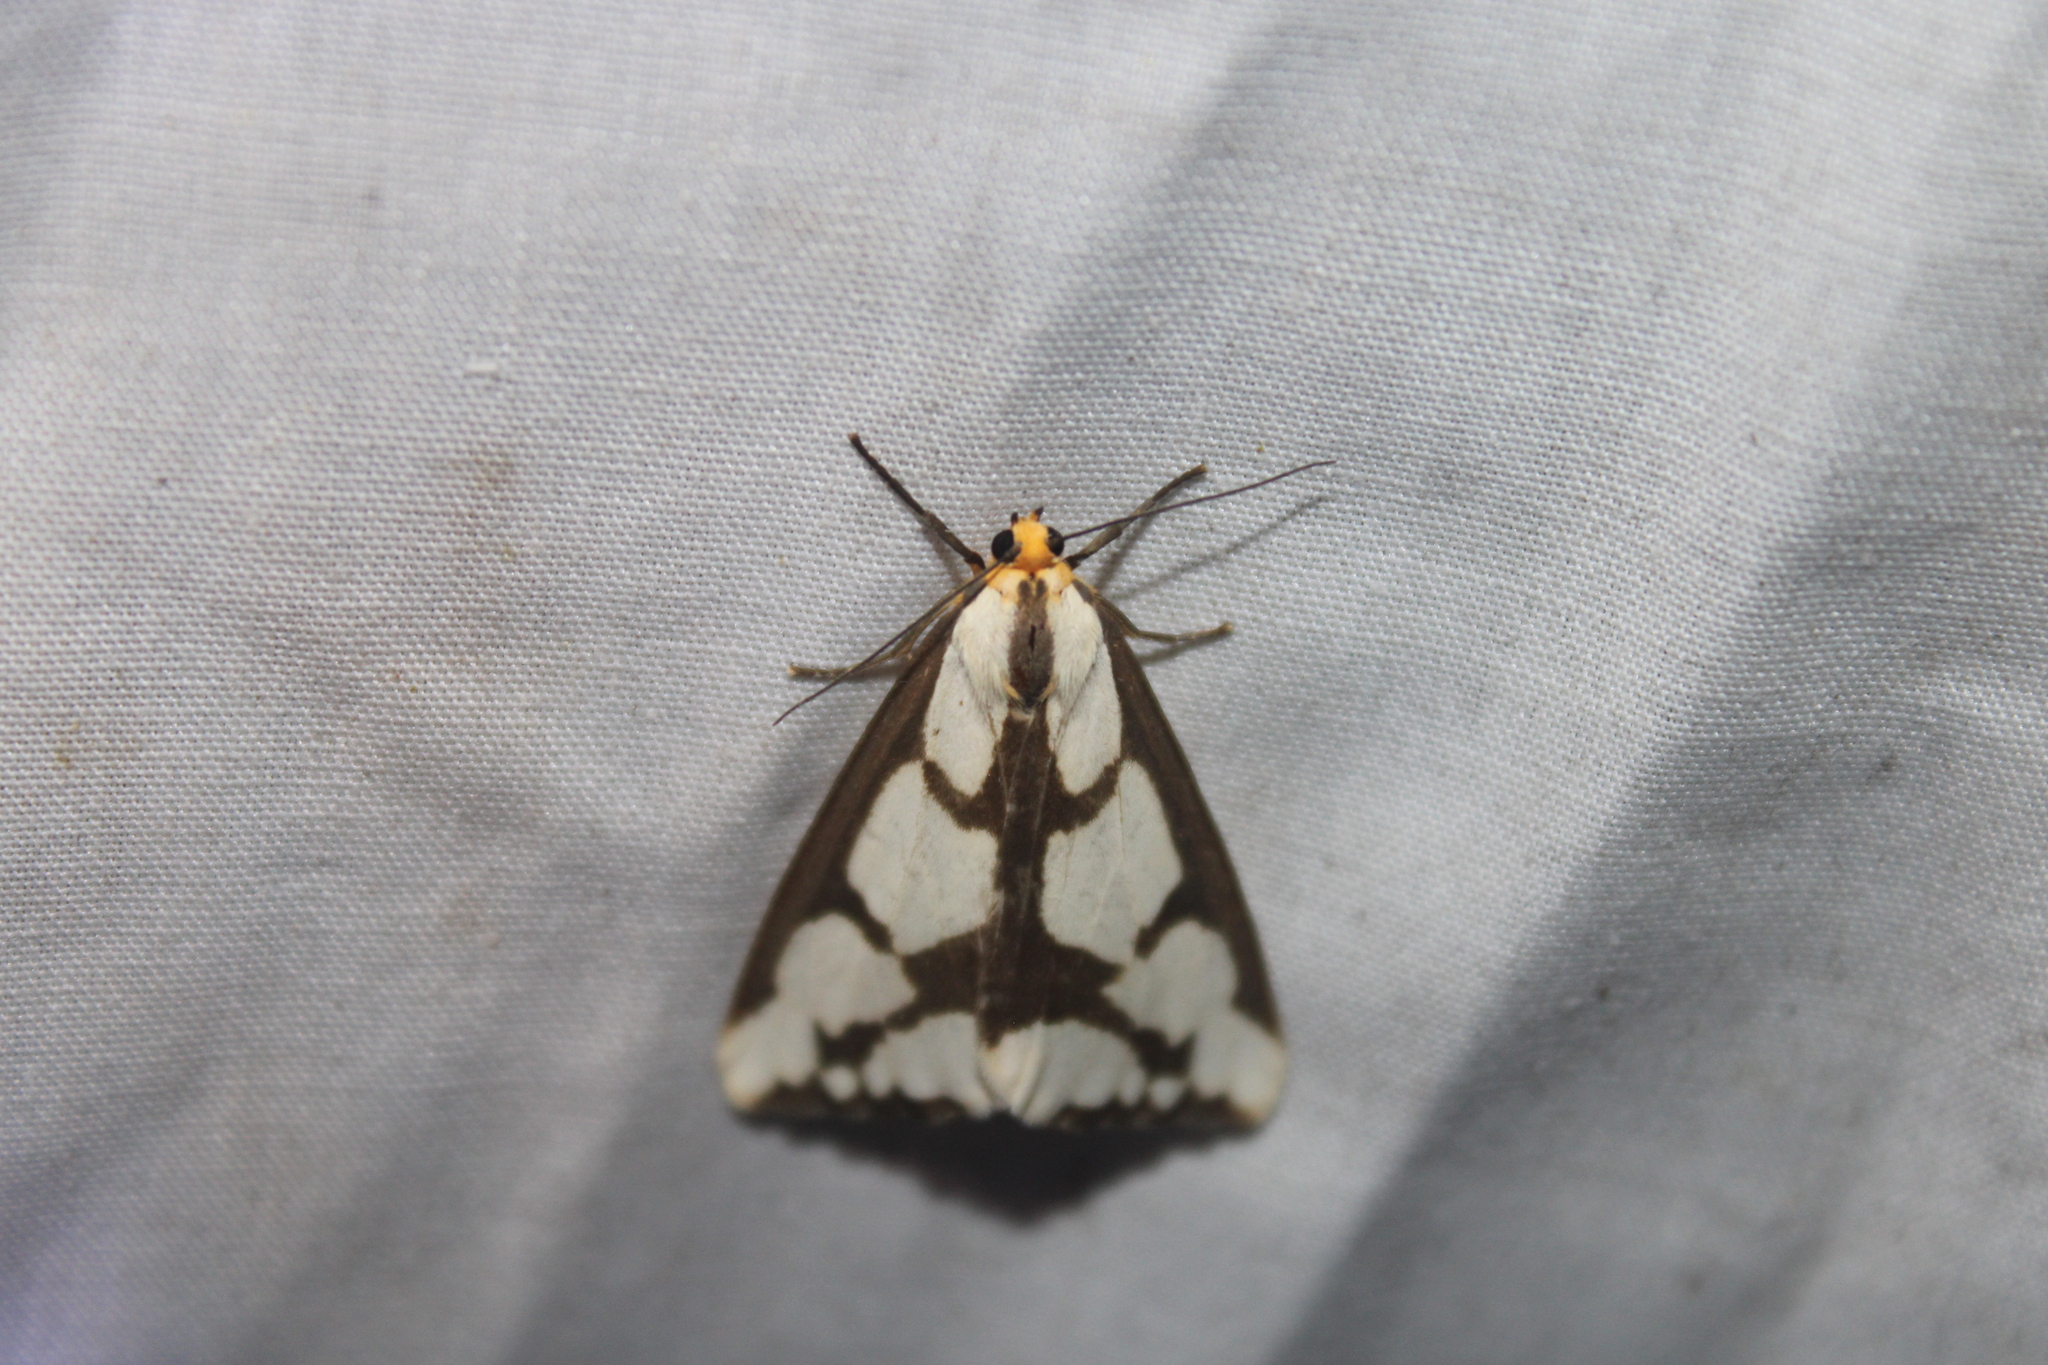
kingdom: Animalia
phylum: Arthropoda
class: Insecta
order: Lepidoptera
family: Erebidae
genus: Haploa
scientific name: Haploa lecontei
